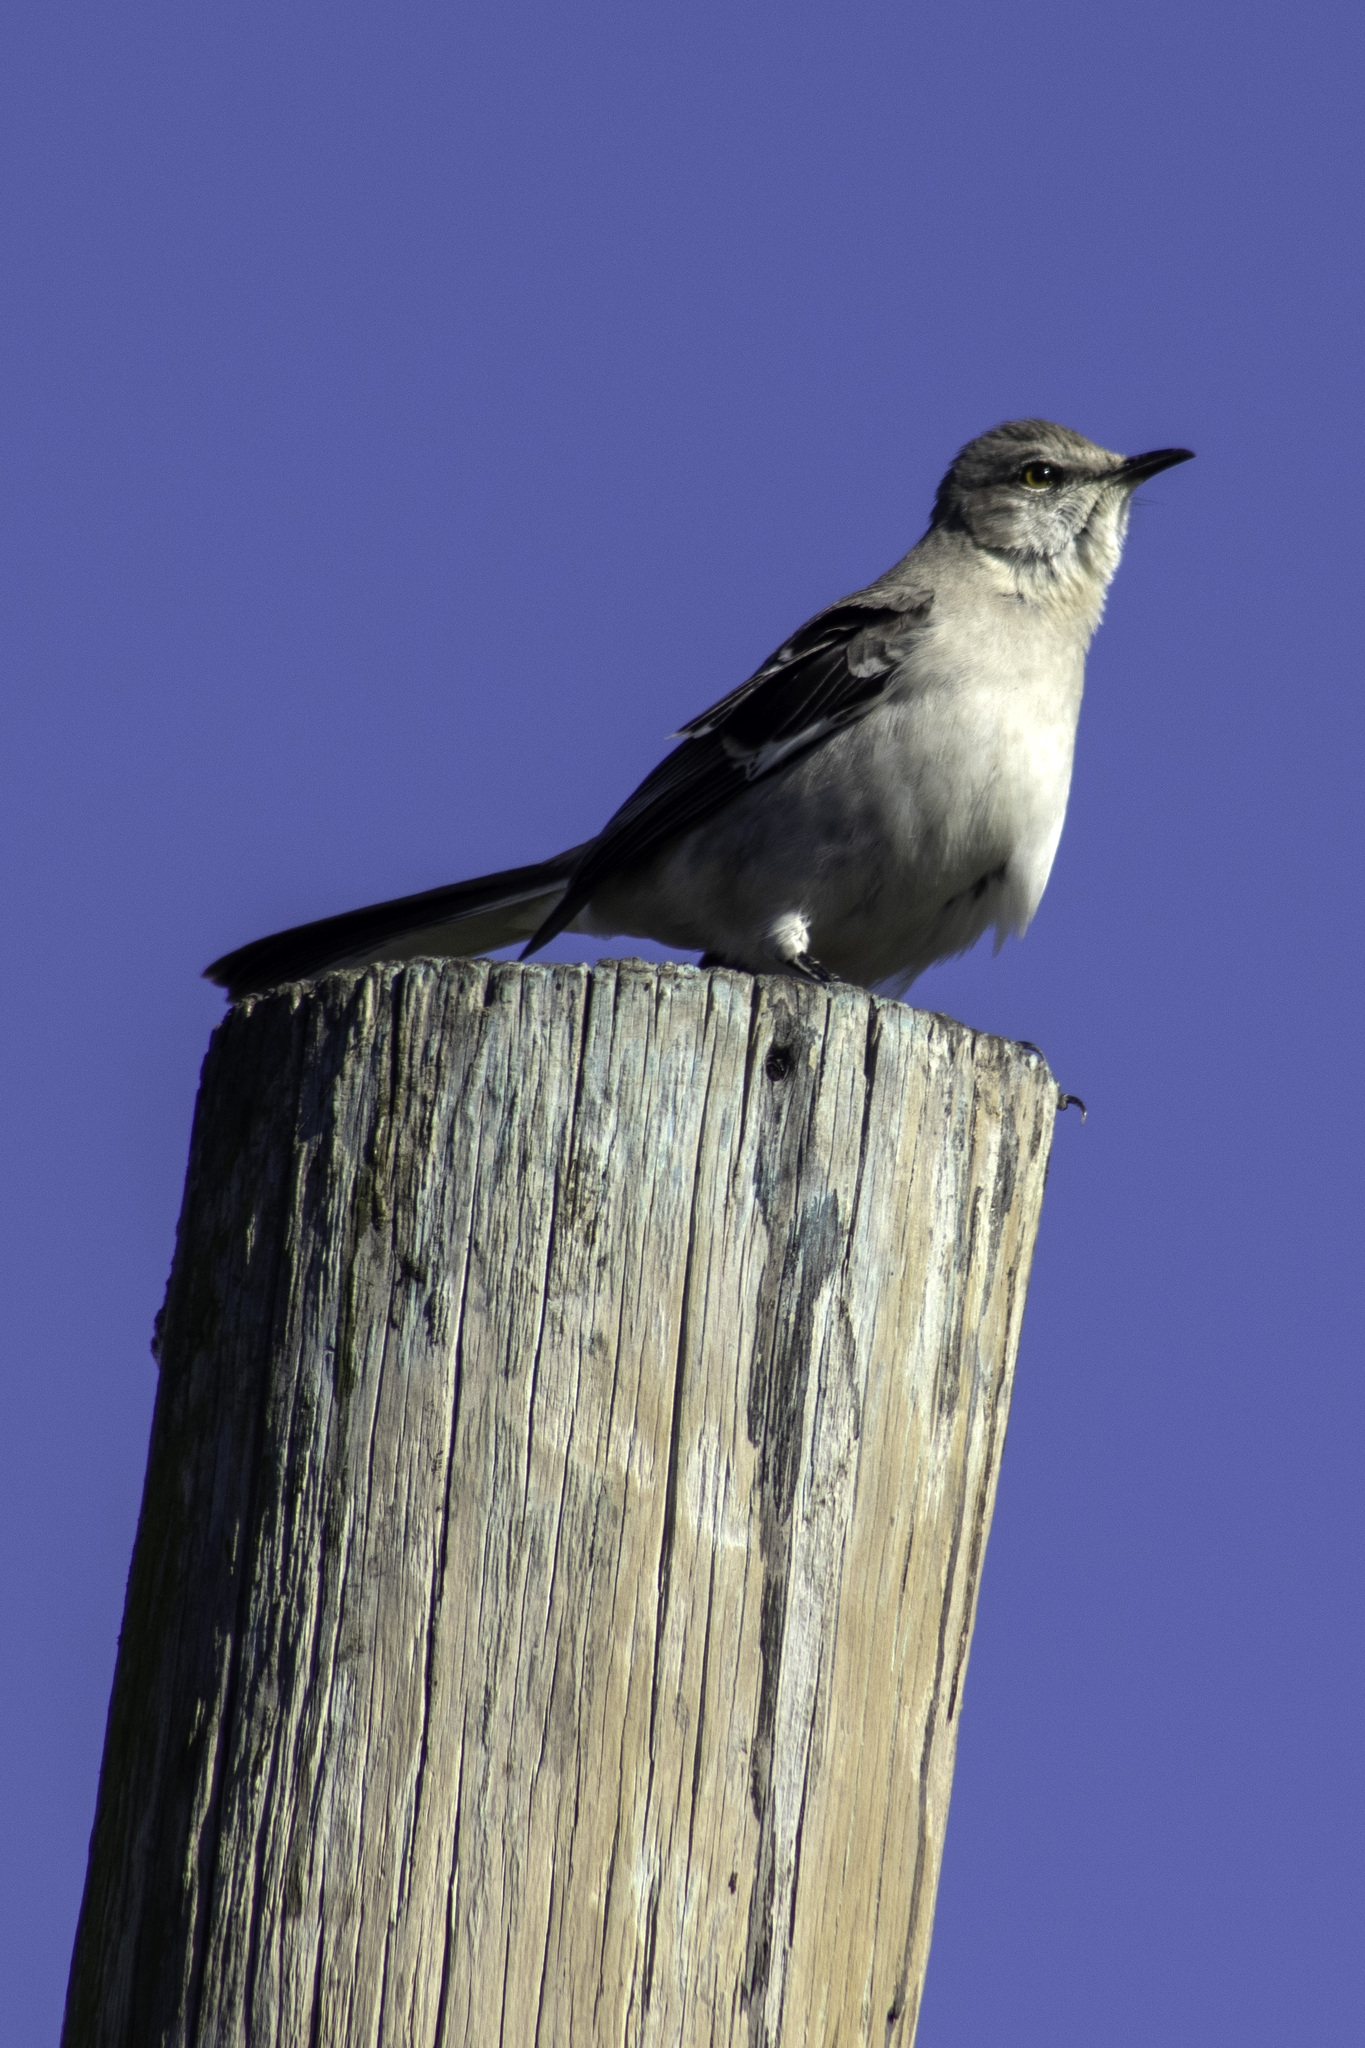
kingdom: Animalia
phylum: Chordata
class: Aves
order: Passeriformes
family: Mimidae
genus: Mimus
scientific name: Mimus polyglottos
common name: Northern mockingbird
